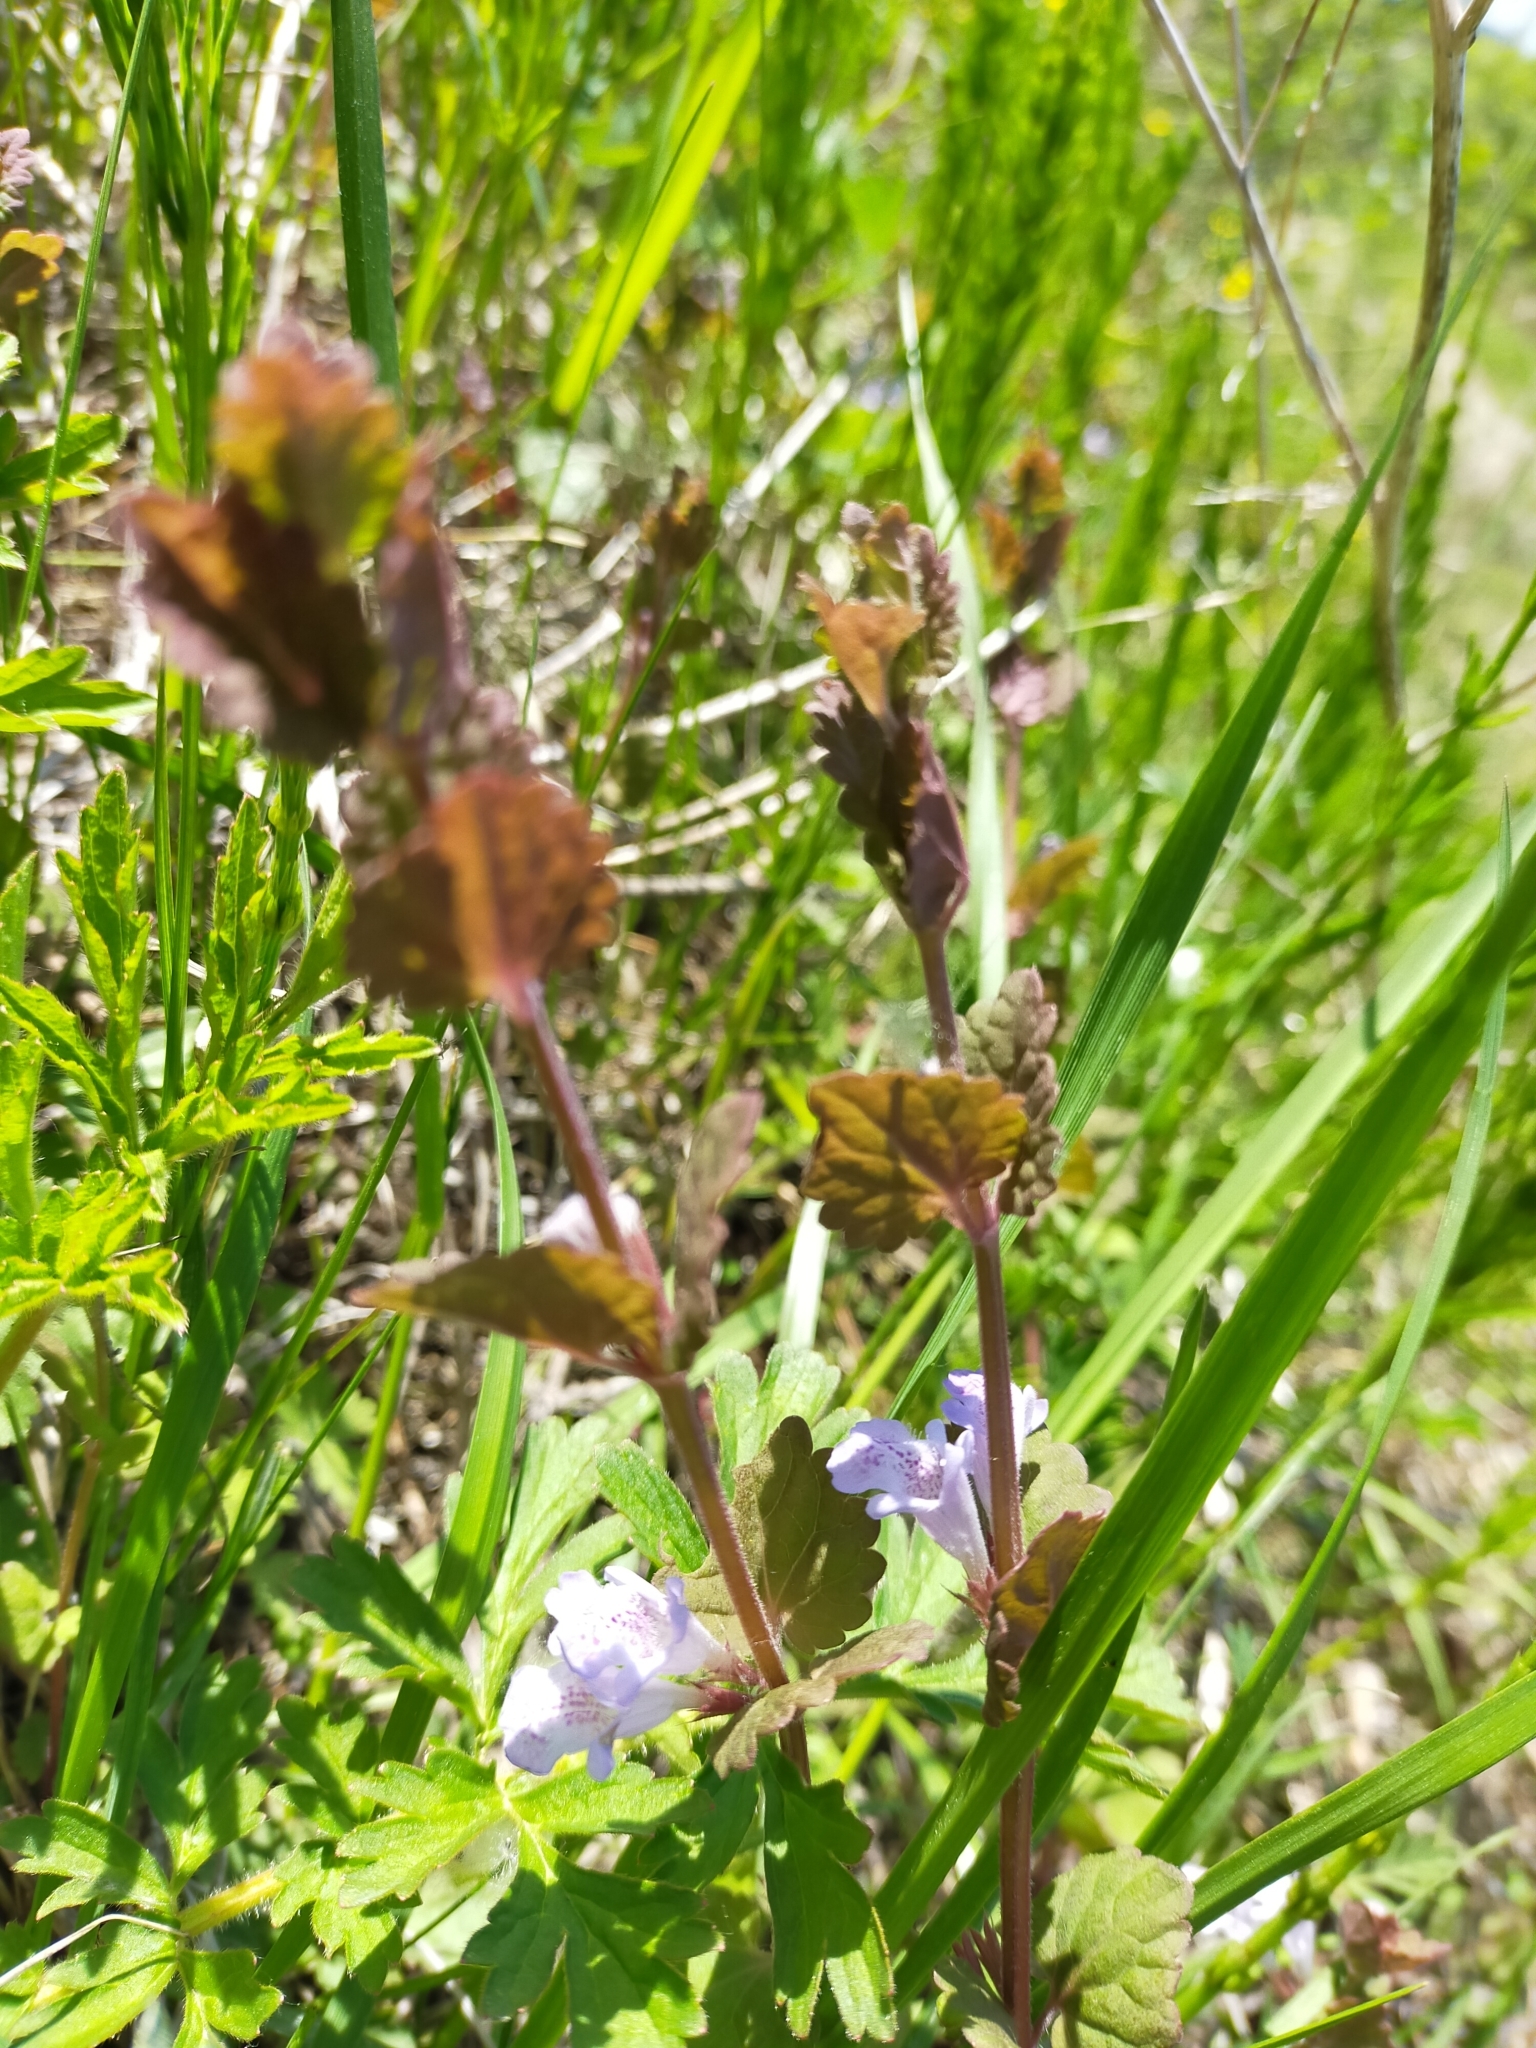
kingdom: Plantae
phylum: Tracheophyta
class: Magnoliopsida
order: Lamiales
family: Lamiaceae
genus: Glechoma
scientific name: Glechoma hederacea
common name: Ground ivy
